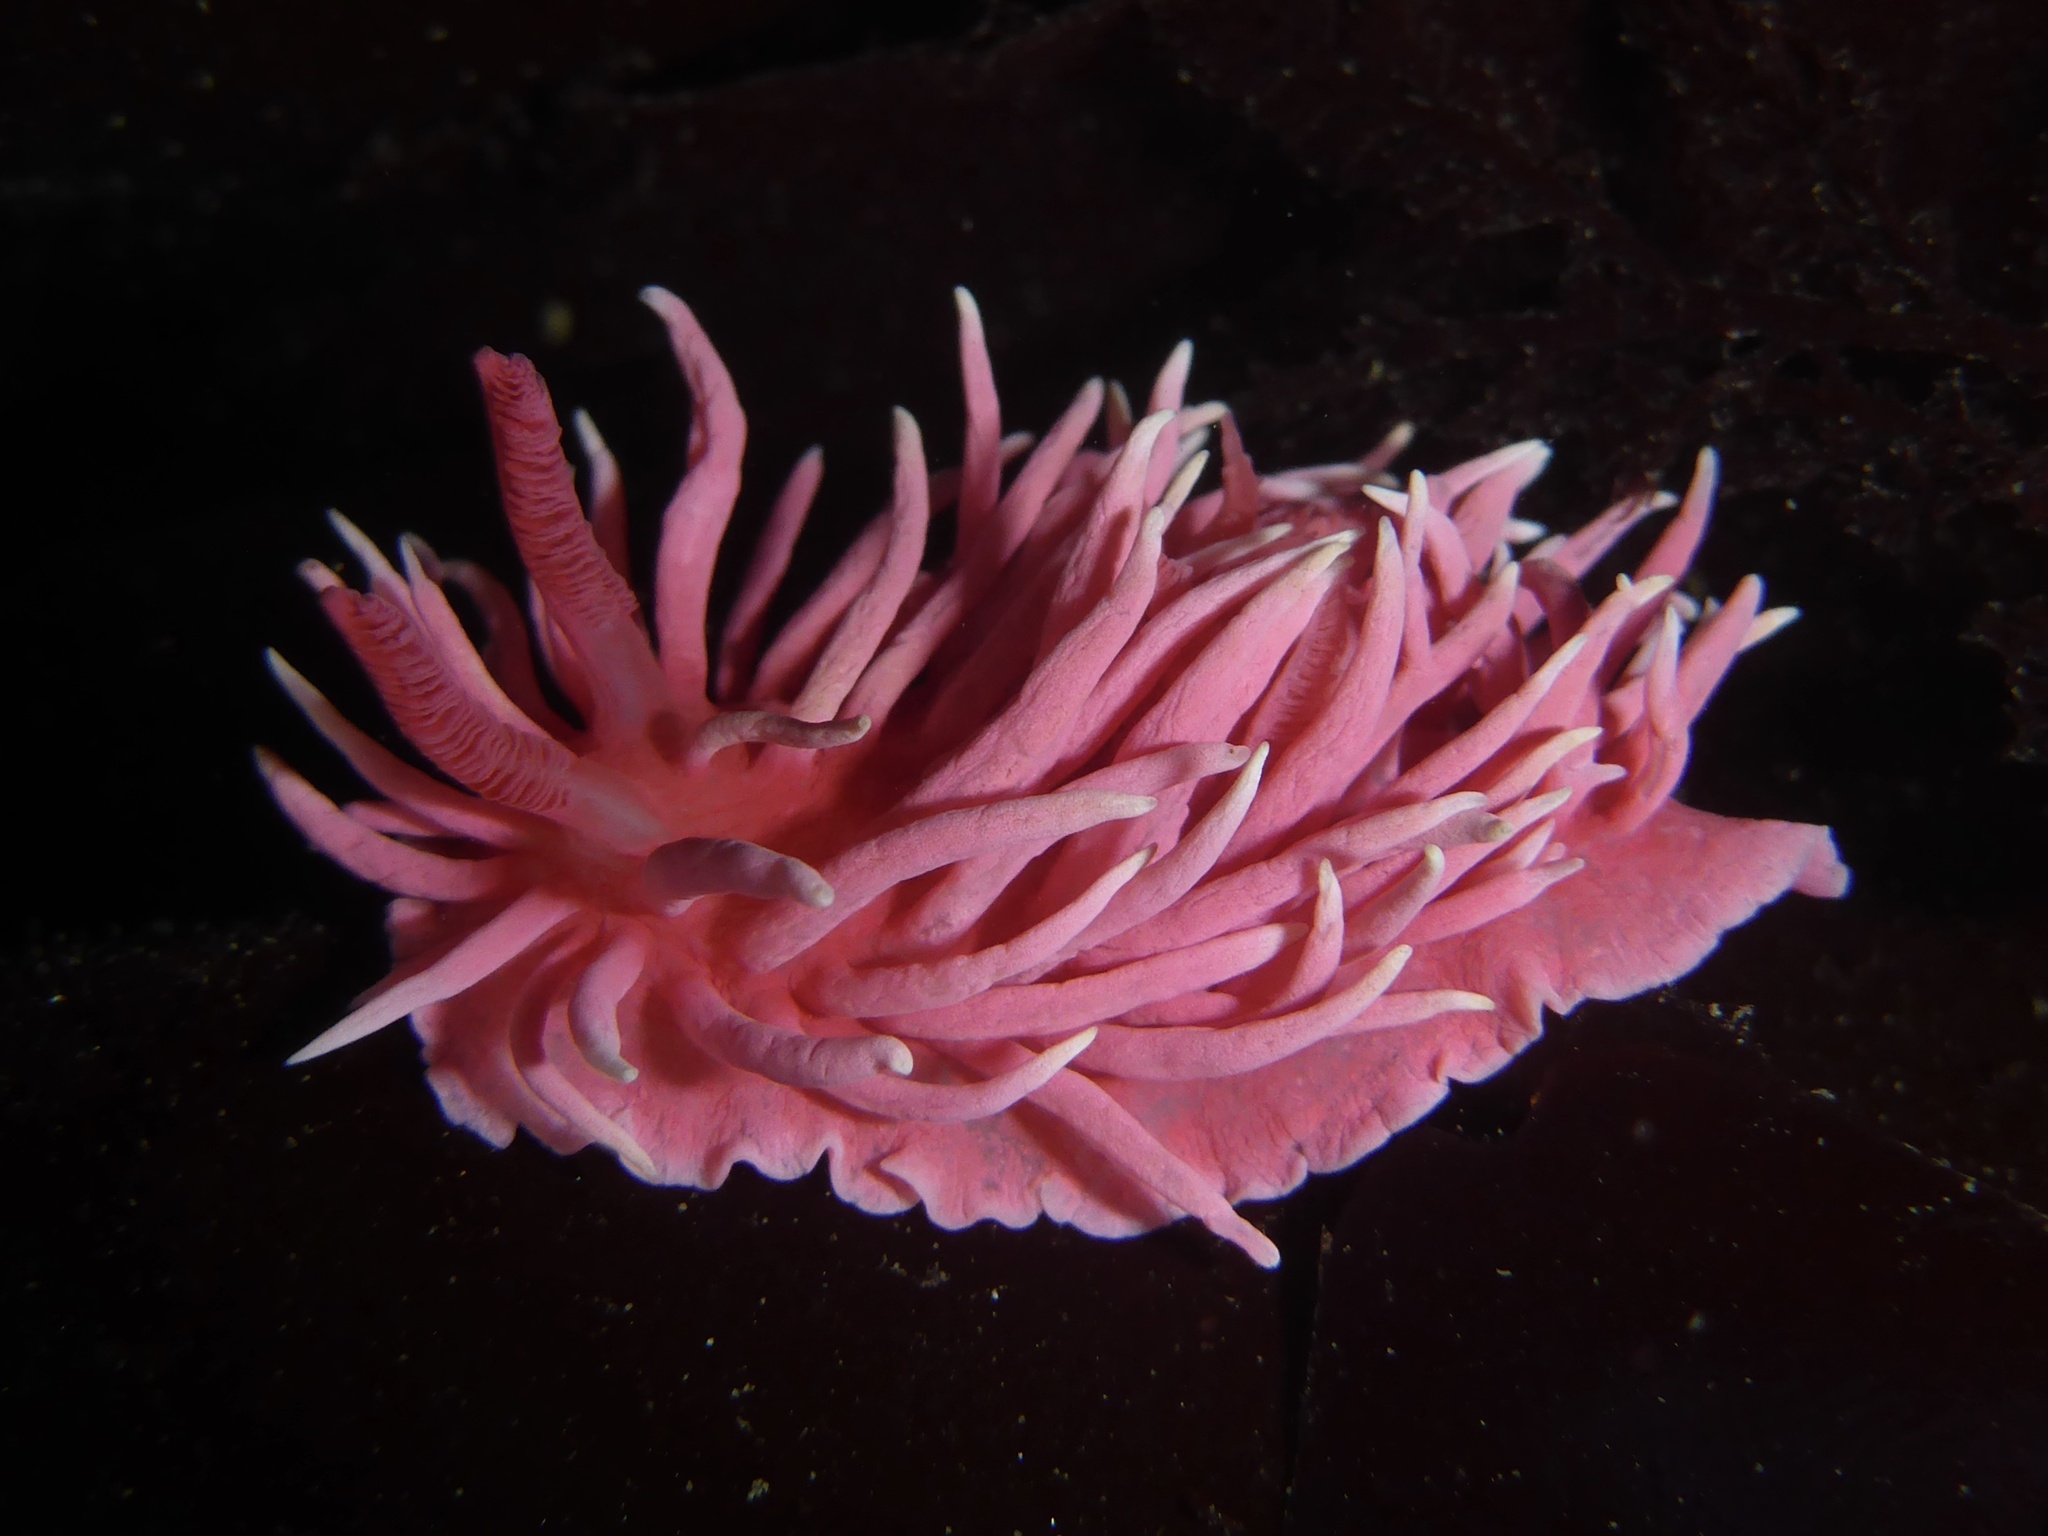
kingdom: Animalia
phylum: Mollusca
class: Gastropoda
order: Nudibranchia
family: Goniodorididae
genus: Okenia
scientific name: Okenia
